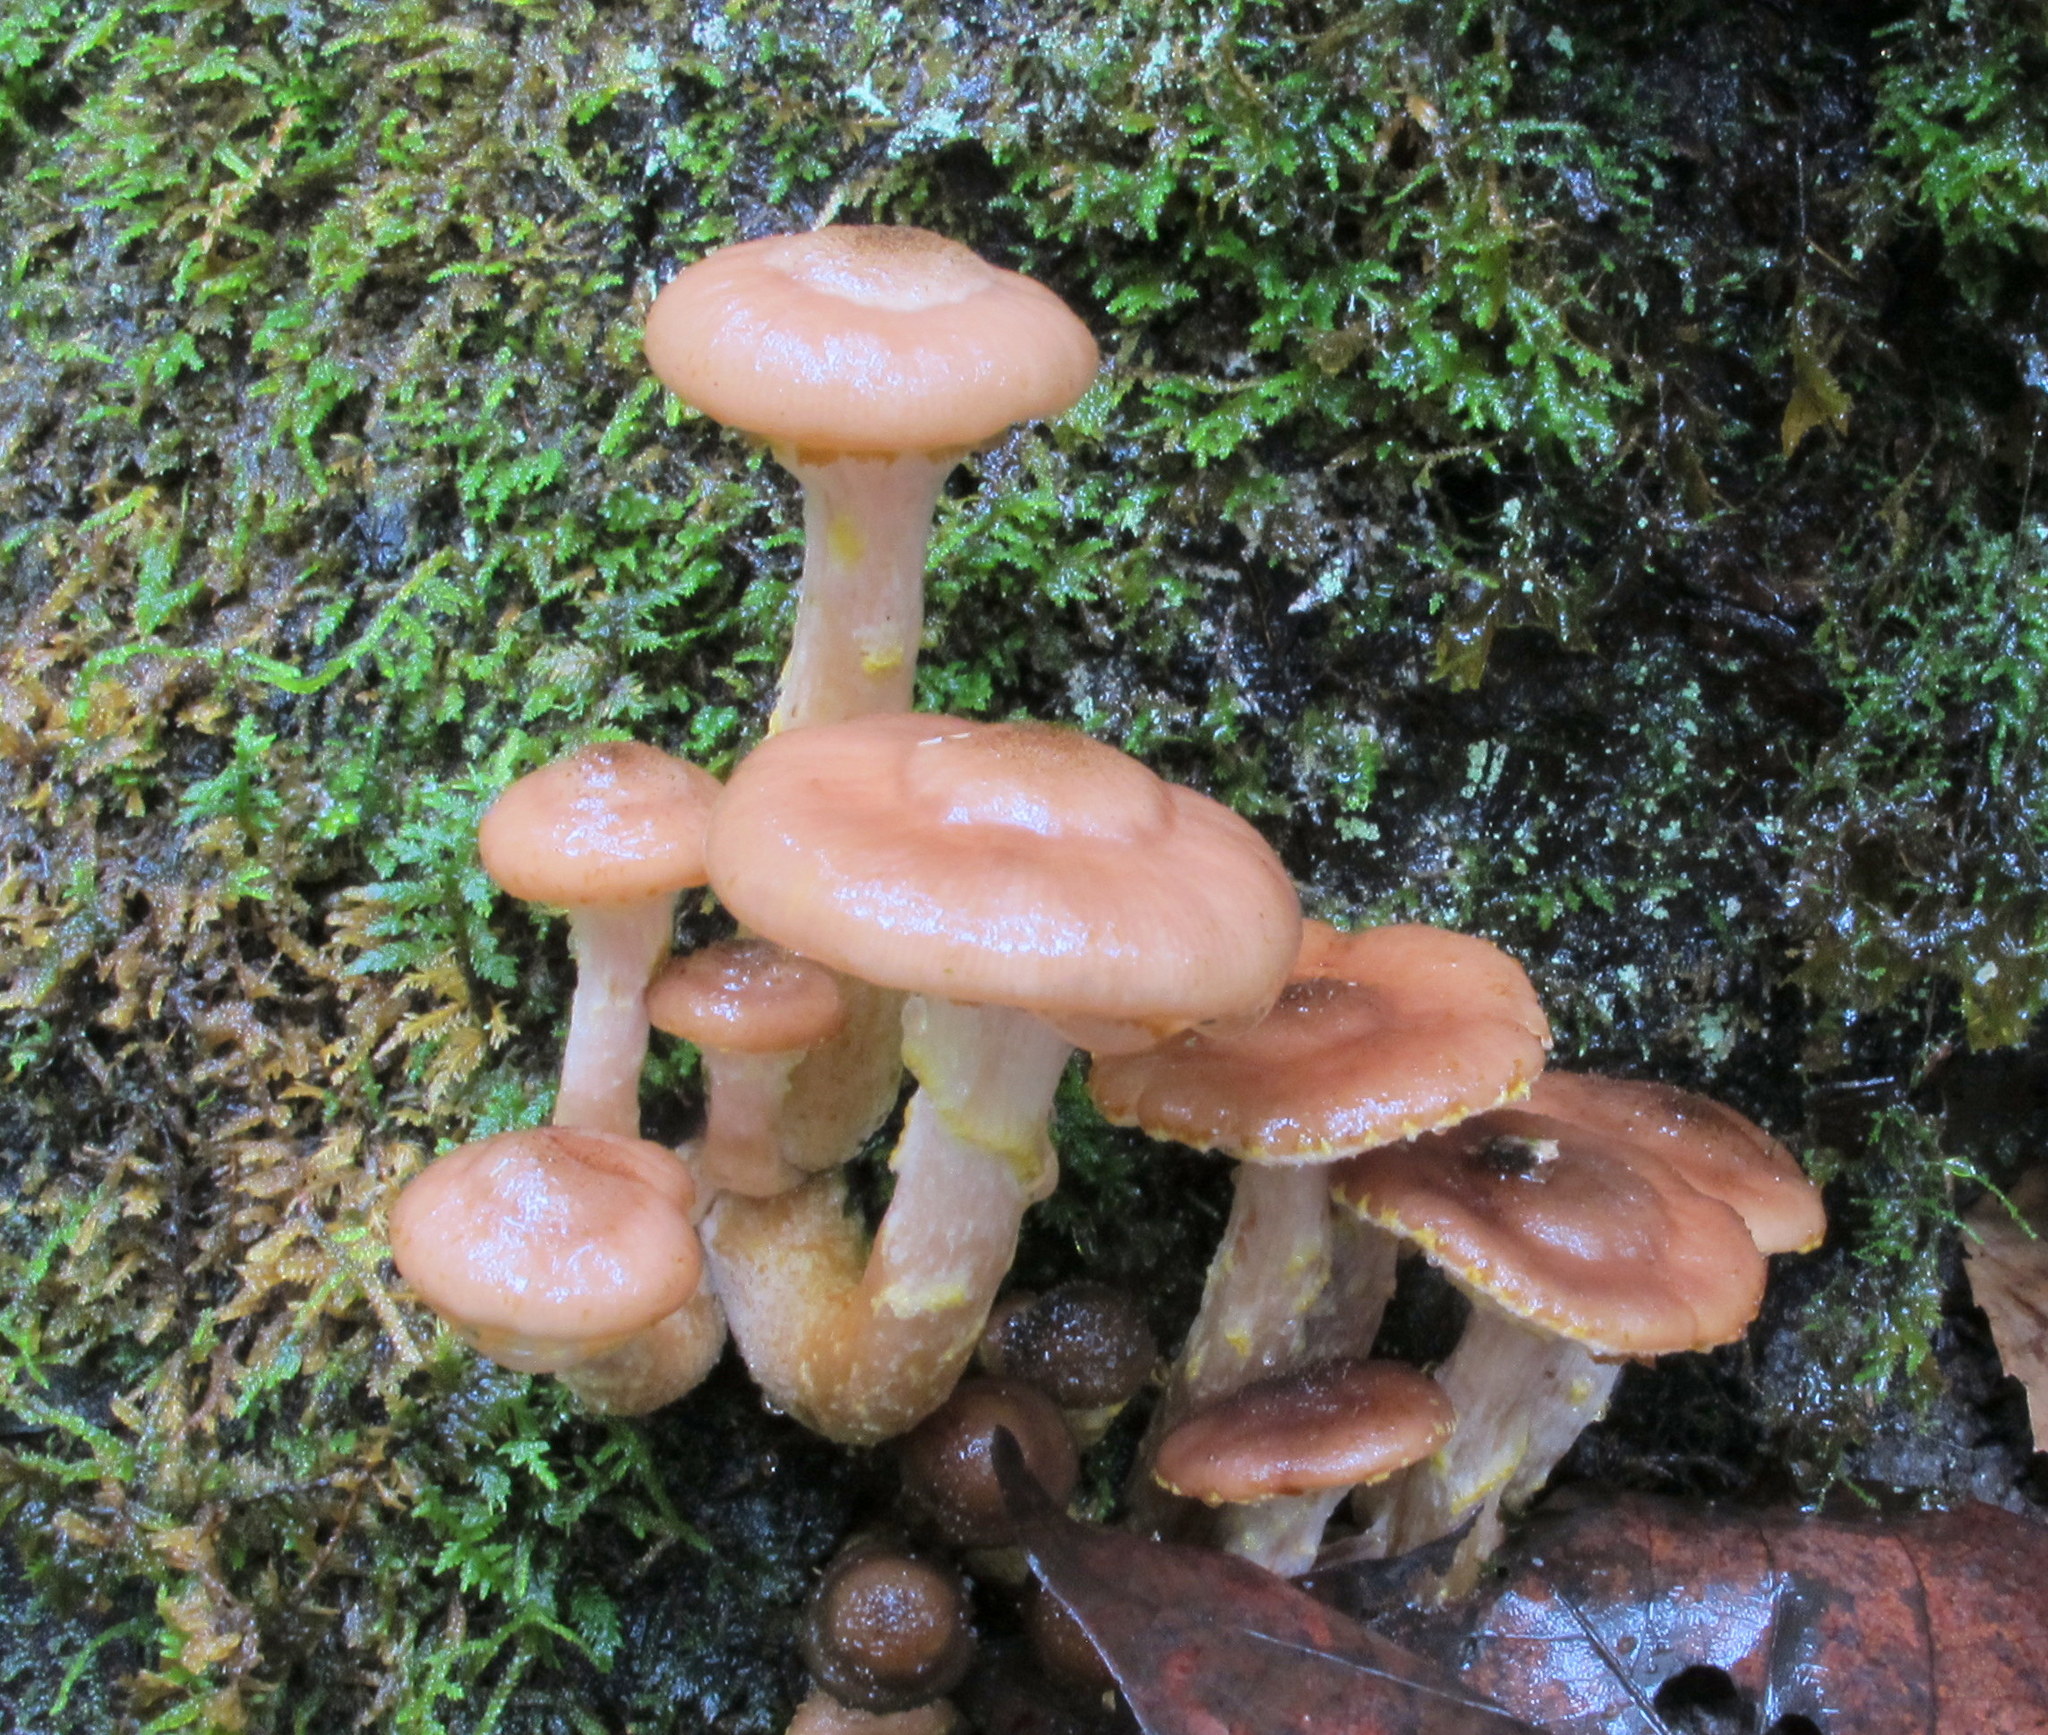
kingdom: Fungi
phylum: Basidiomycota
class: Agaricomycetes
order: Agaricales
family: Physalacriaceae
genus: Armillaria
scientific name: Armillaria gallica
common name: Bulbous honey fungus
